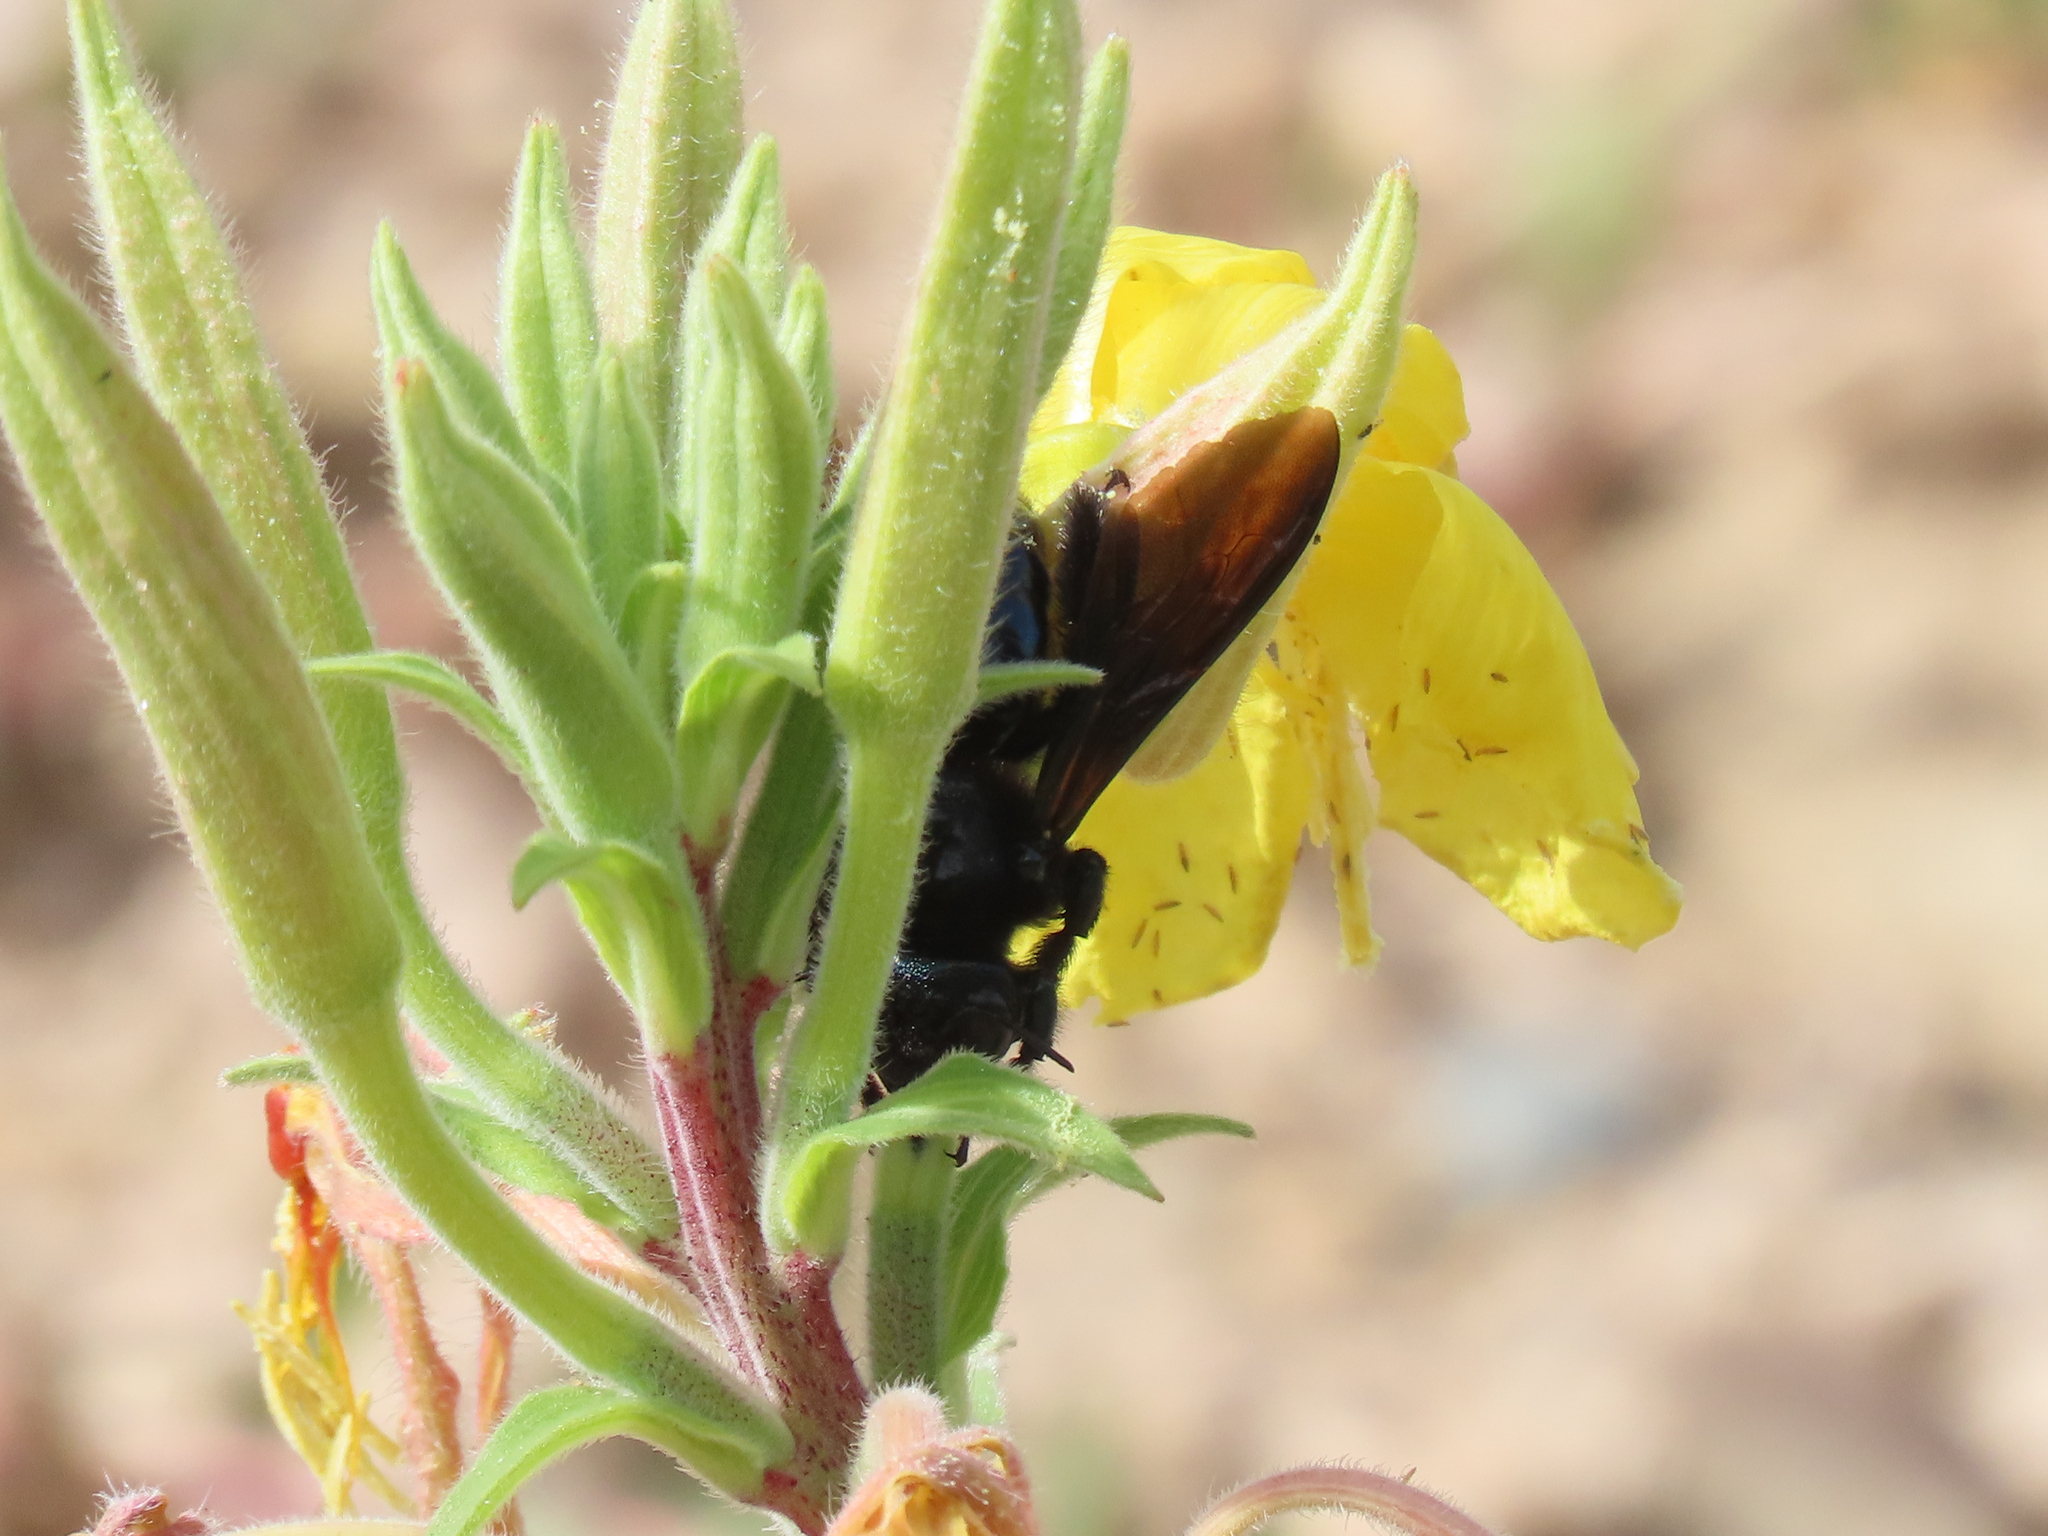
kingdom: Animalia
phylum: Arthropoda
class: Insecta
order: Hymenoptera
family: Apidae
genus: Xylocopa
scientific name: Xylocopa californica
